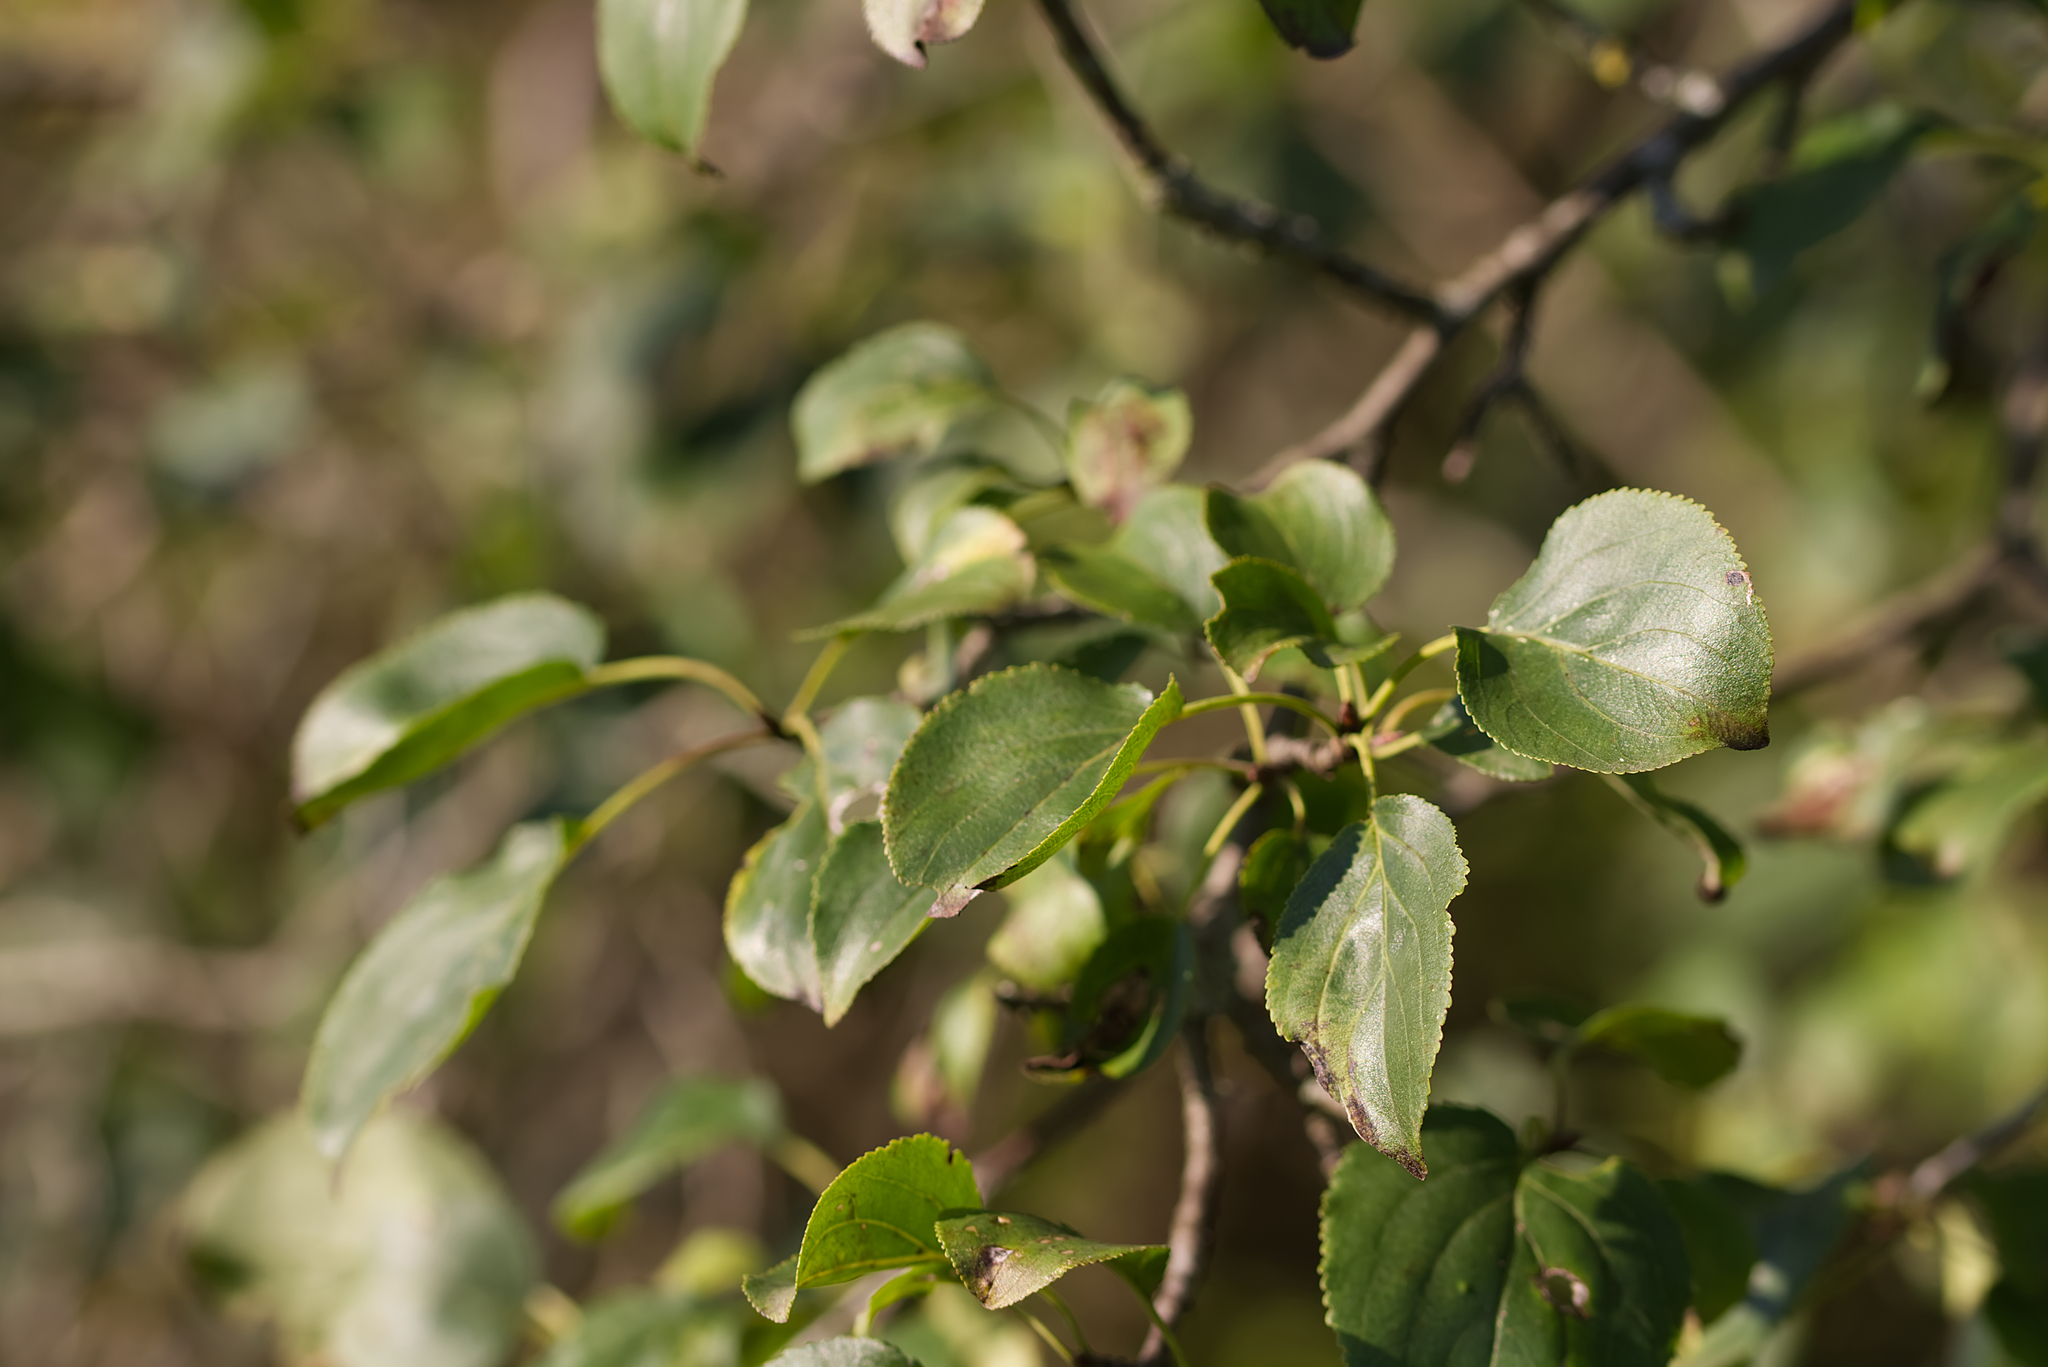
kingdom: Plantae
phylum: Tracheophyta
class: Magnoliopsida
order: Rosales
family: Rhamnaceae
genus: Rhamnus
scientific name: Rhamnus cathartica
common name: Common buckthorn
